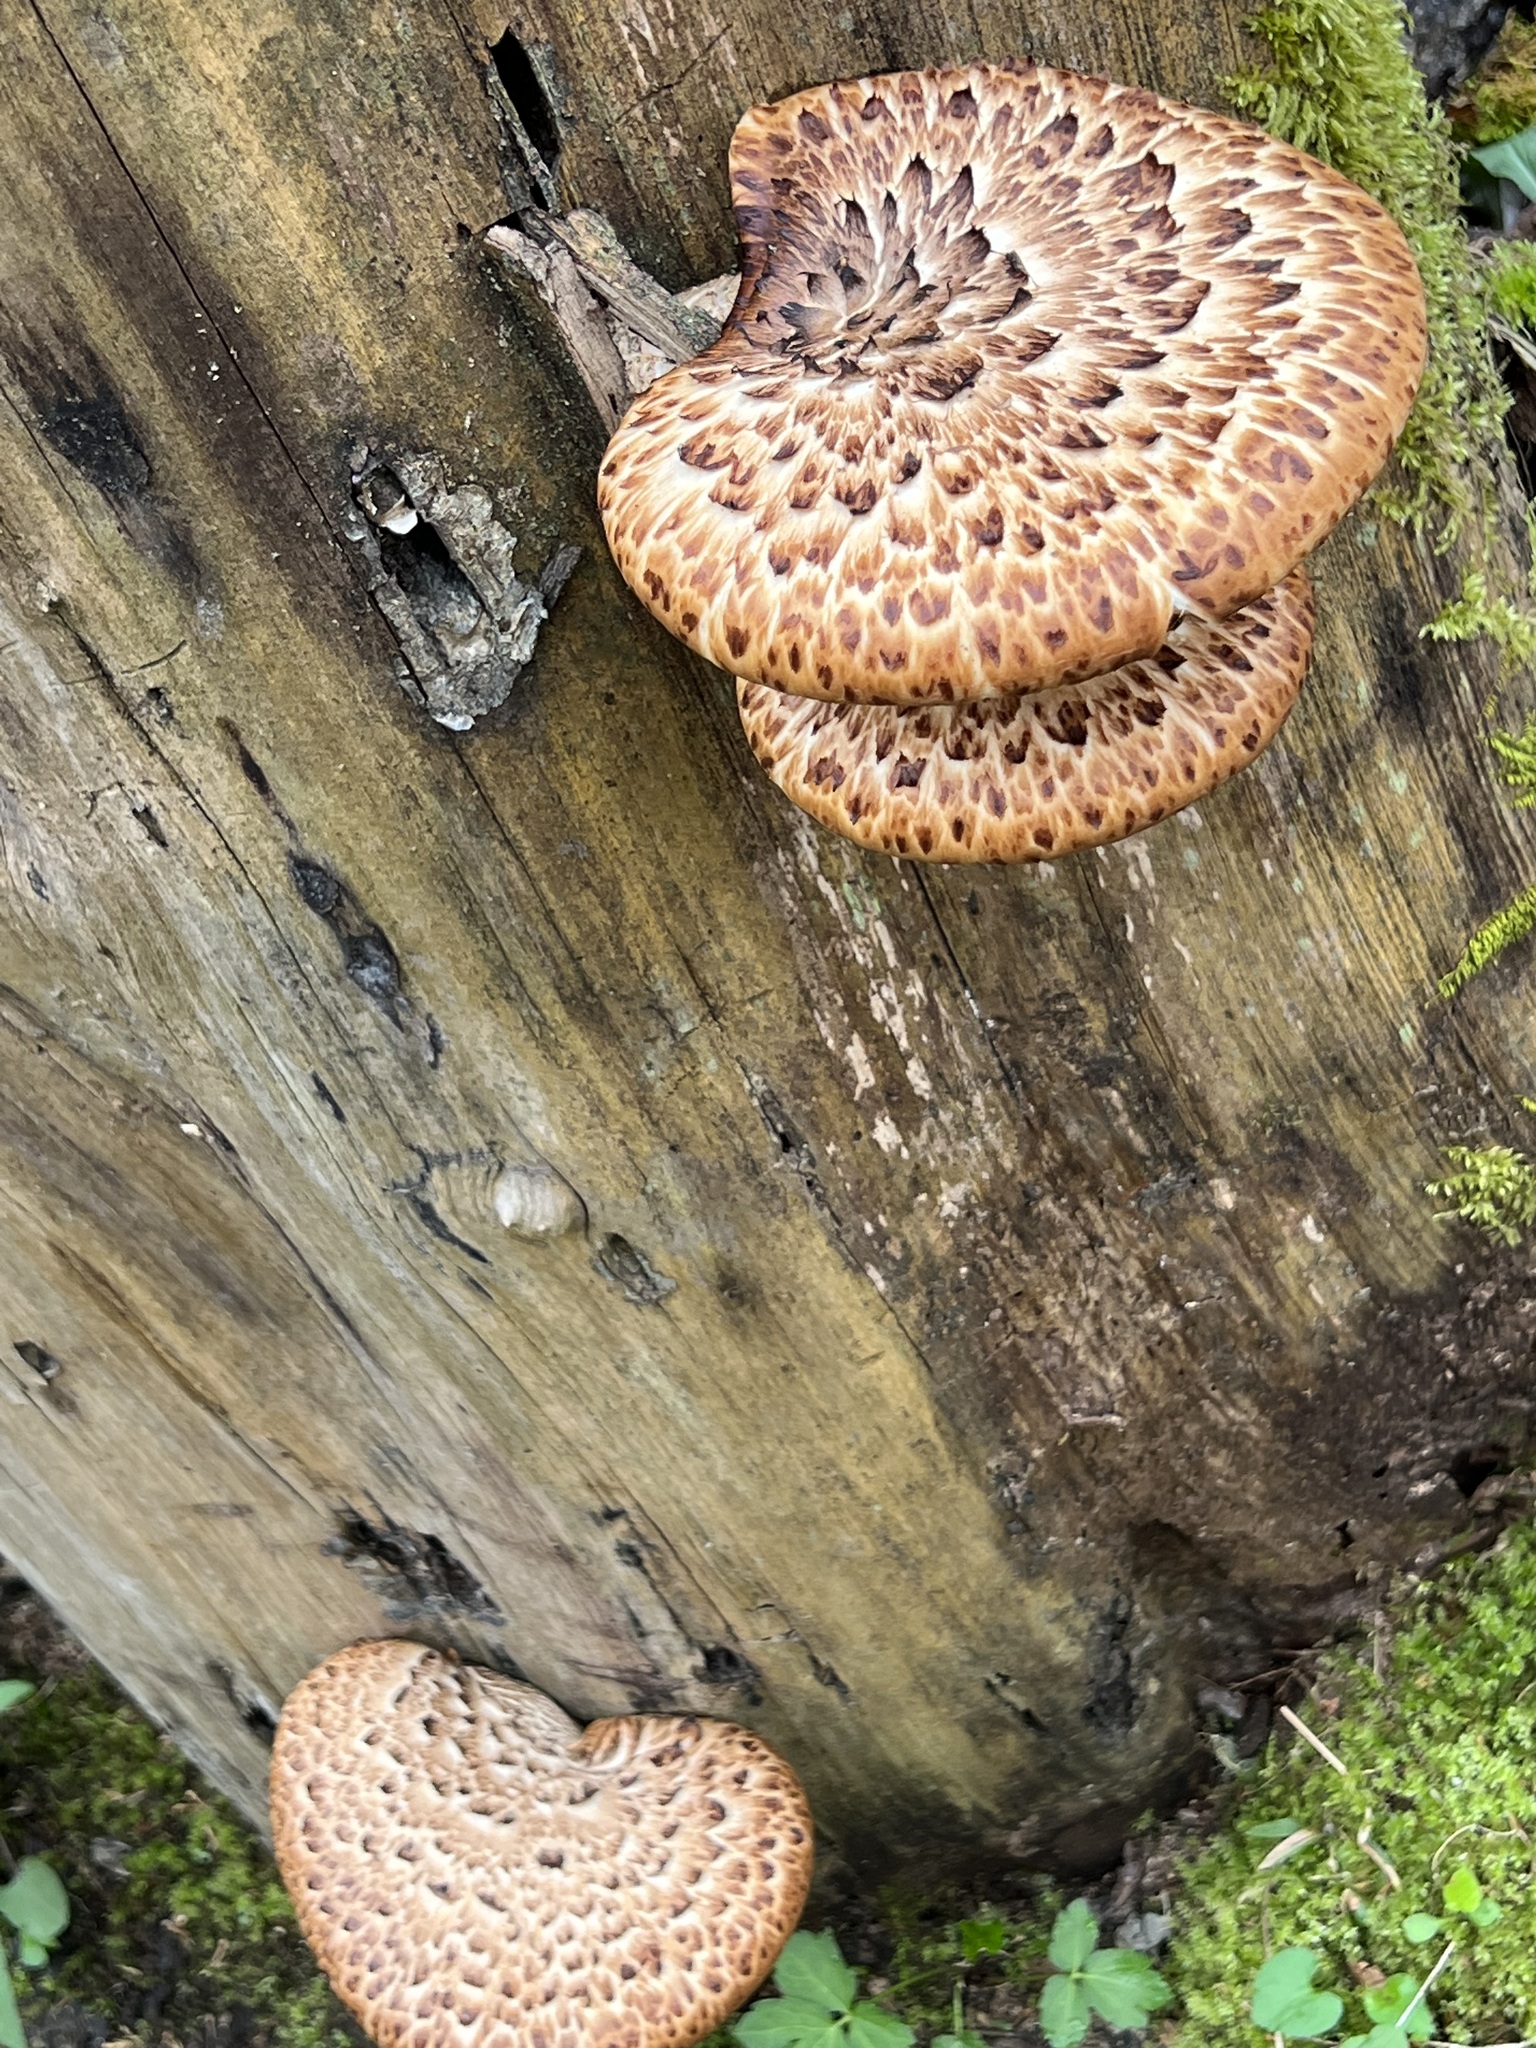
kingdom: Fungi
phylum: Basidiomycota
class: Agaricomycetes
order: Polyporales
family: Polyporaceae
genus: Cerioporus
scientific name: Cerioporus squamosus
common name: Dryad's saddle
